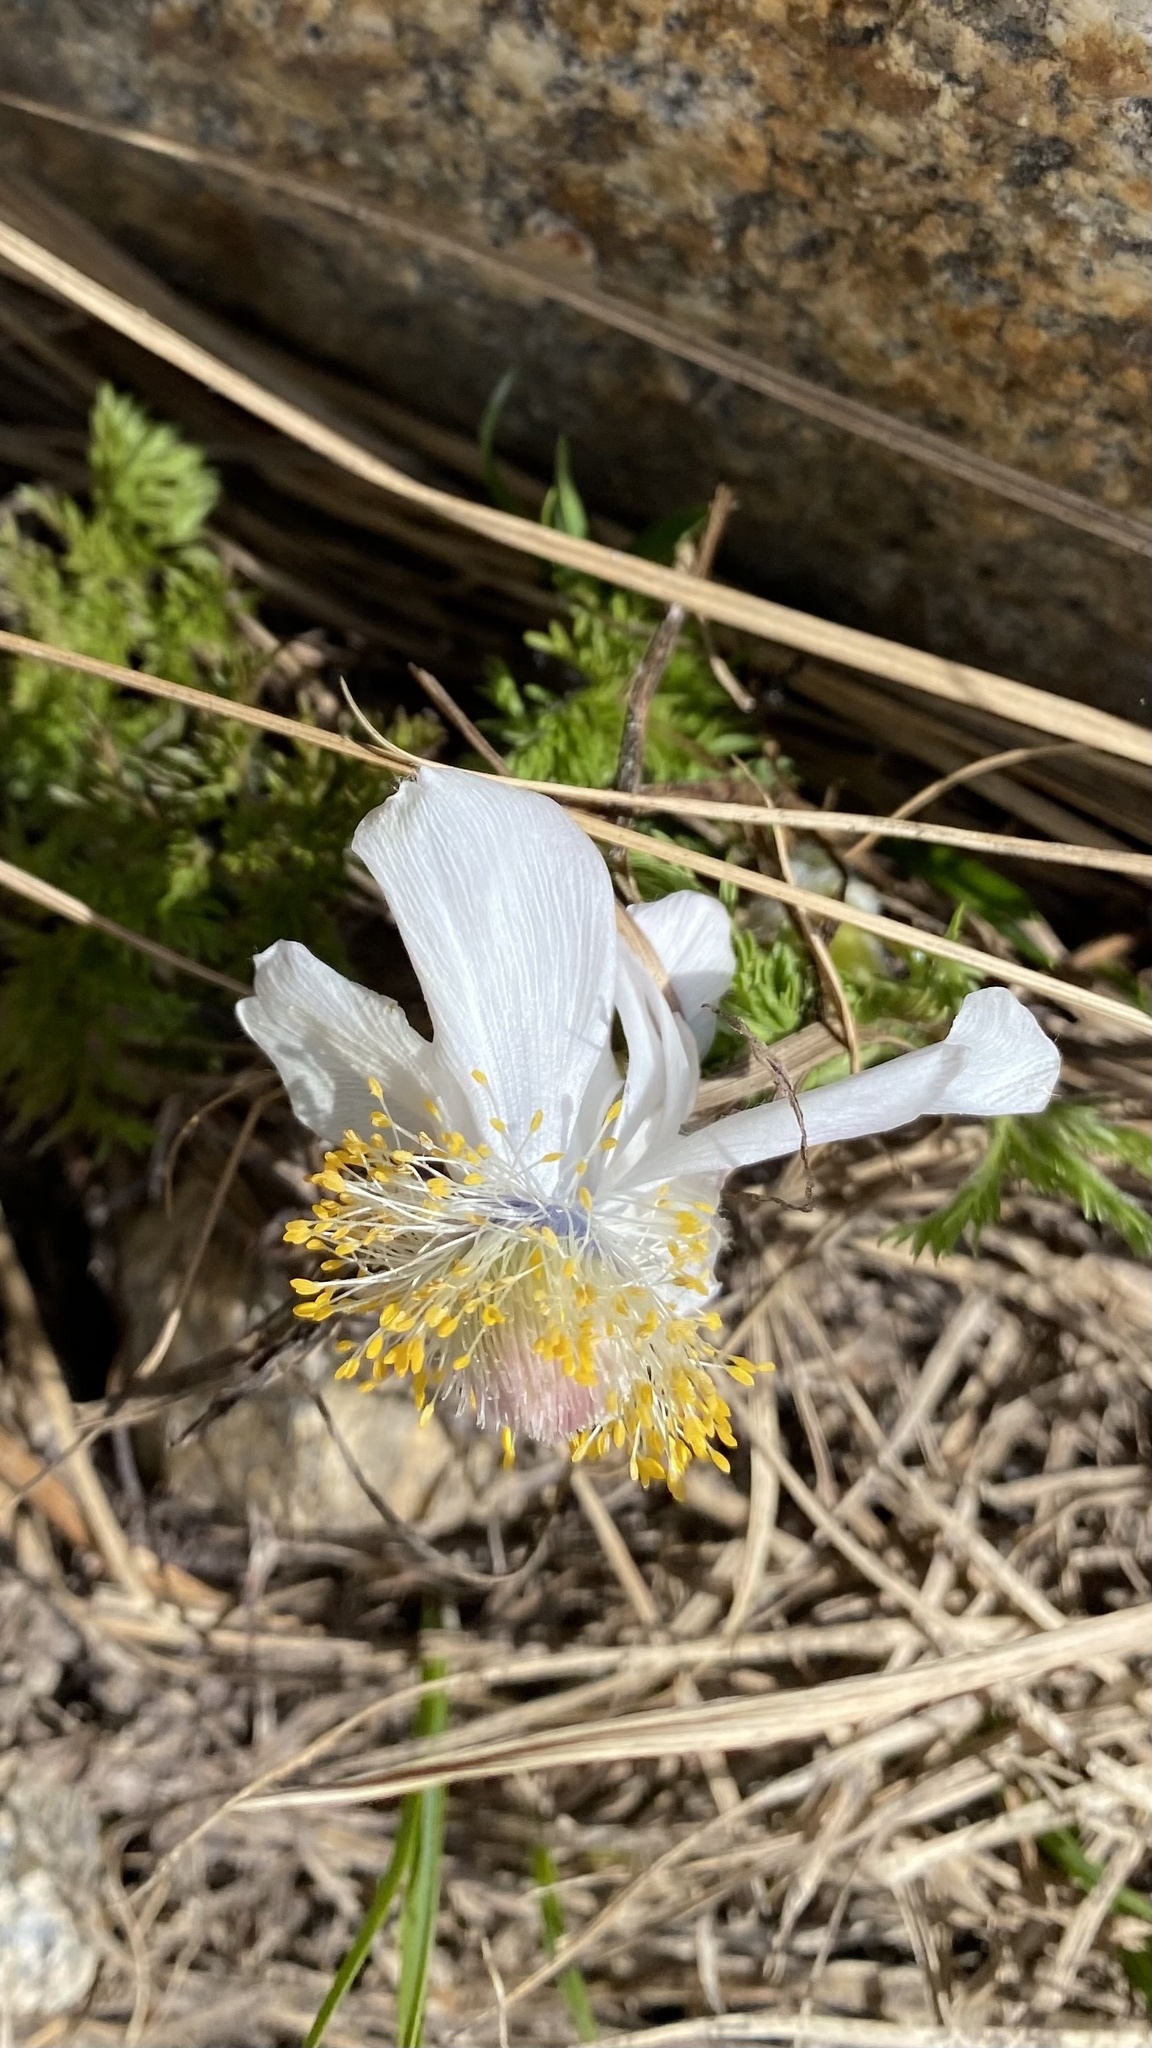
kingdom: Plantae
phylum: Tracheophyta
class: Magnoliopsida
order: Ranunculales
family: Ranunculaceae
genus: Pulsatilla
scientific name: Pulsatilla occidentalis
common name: Mountain pasqueflower
